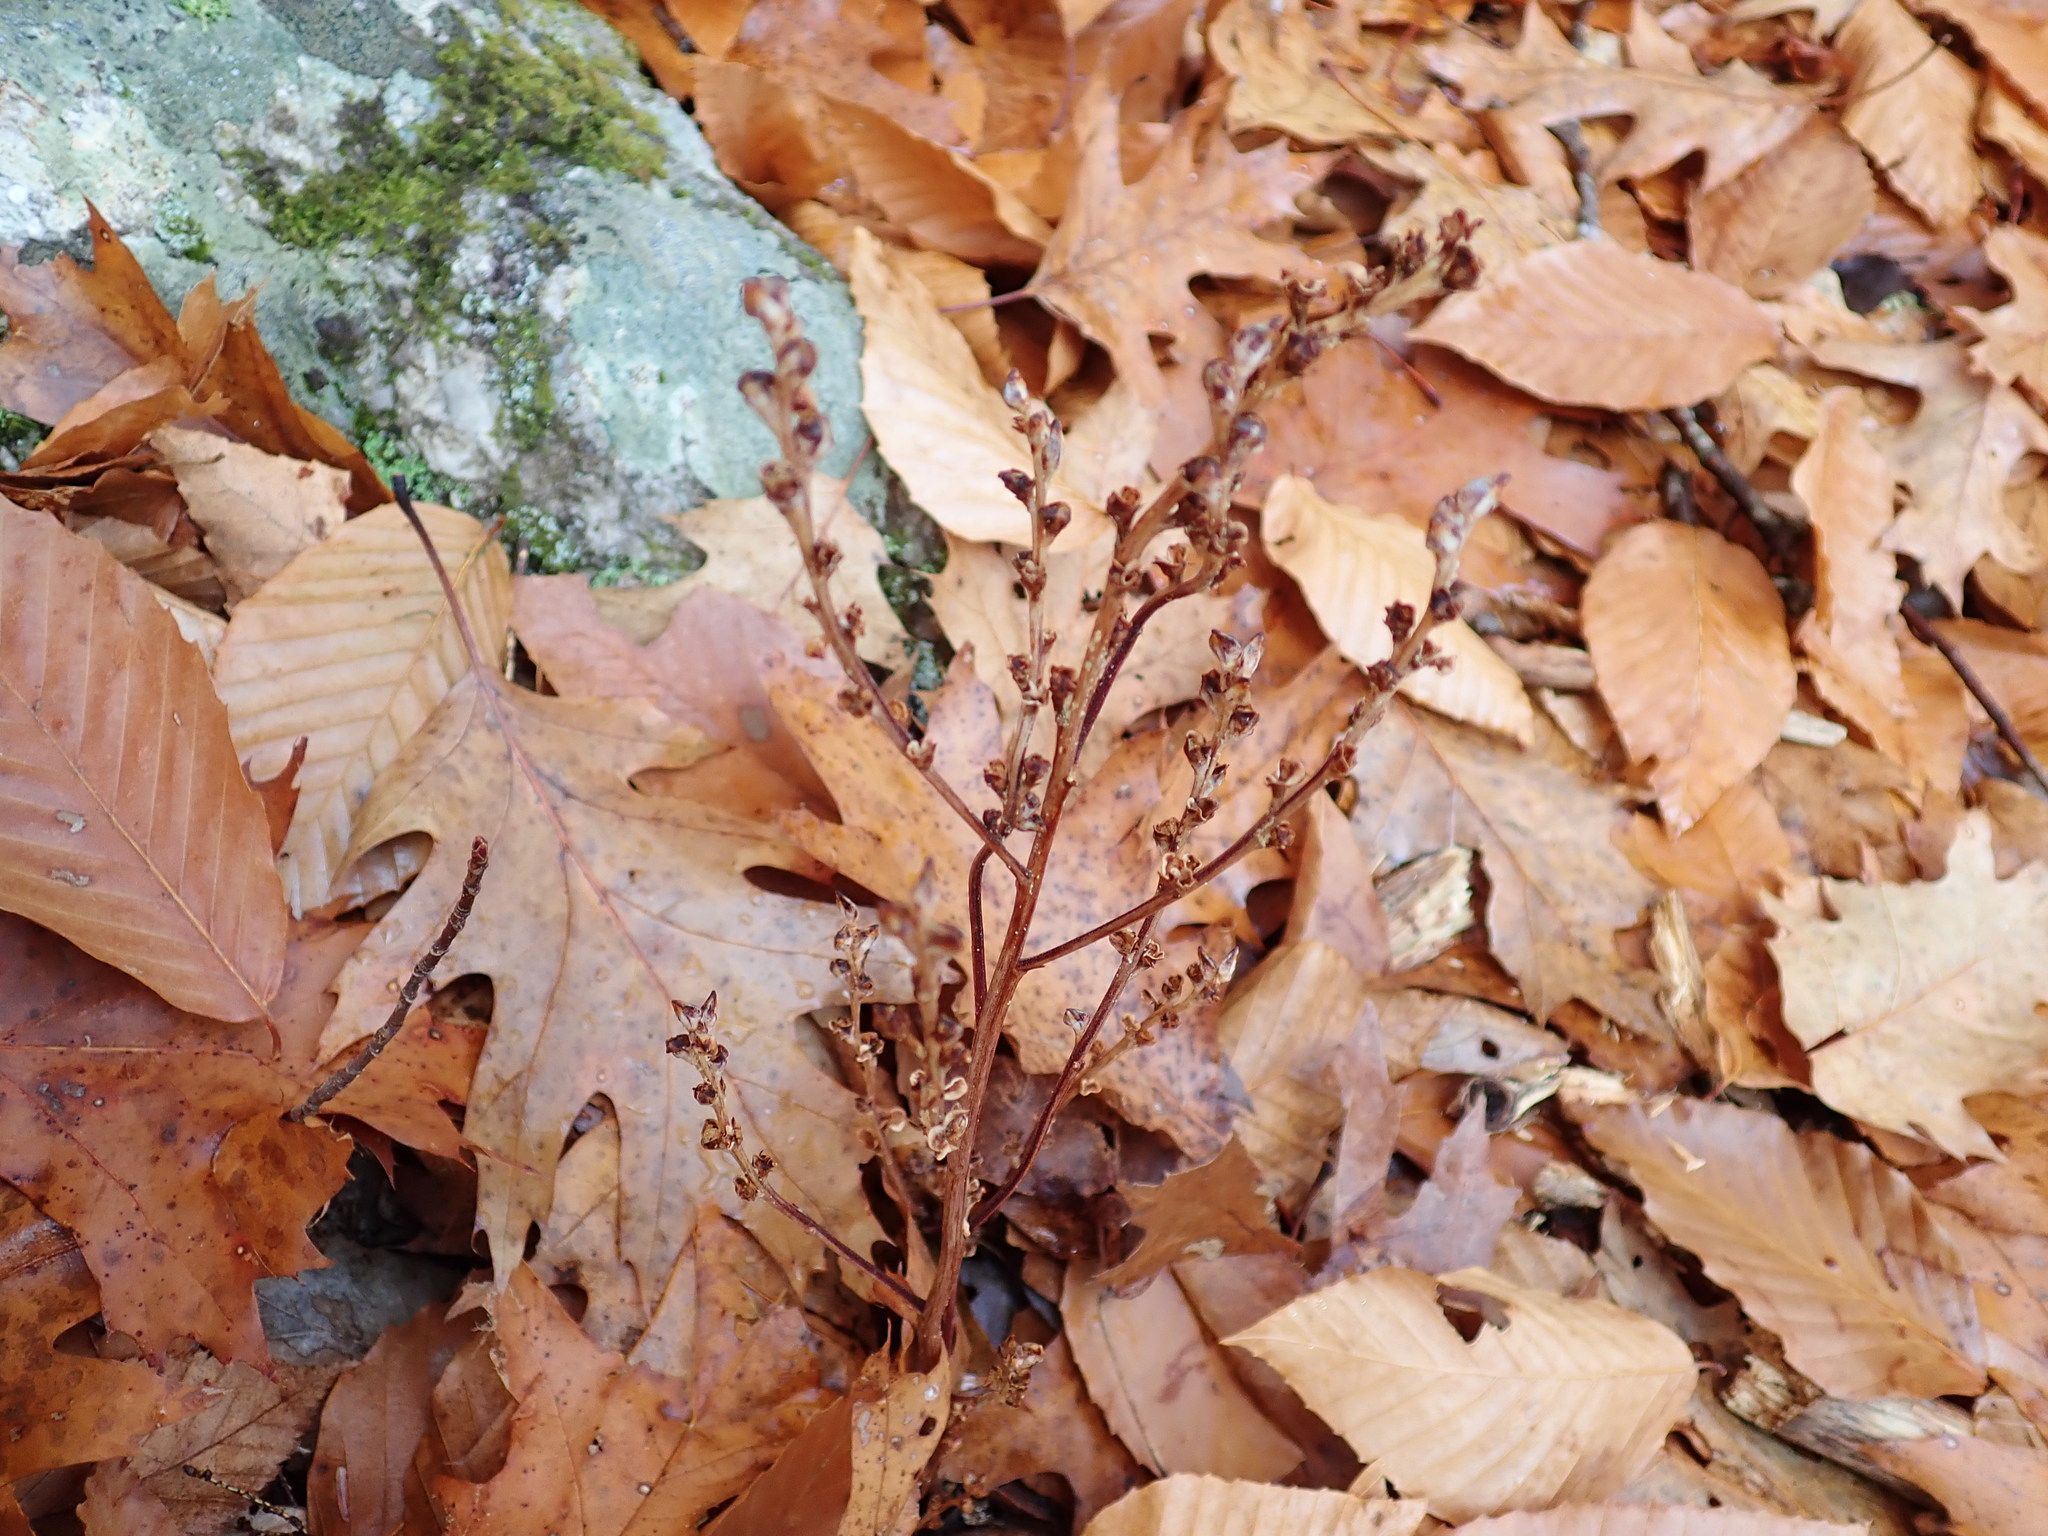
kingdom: Plantae
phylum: Tracheophyta
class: Magnoliopsida
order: Lamiales
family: Orobanchaceae
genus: Epifagus
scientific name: Epifagus virginiana
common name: Beechdrops
